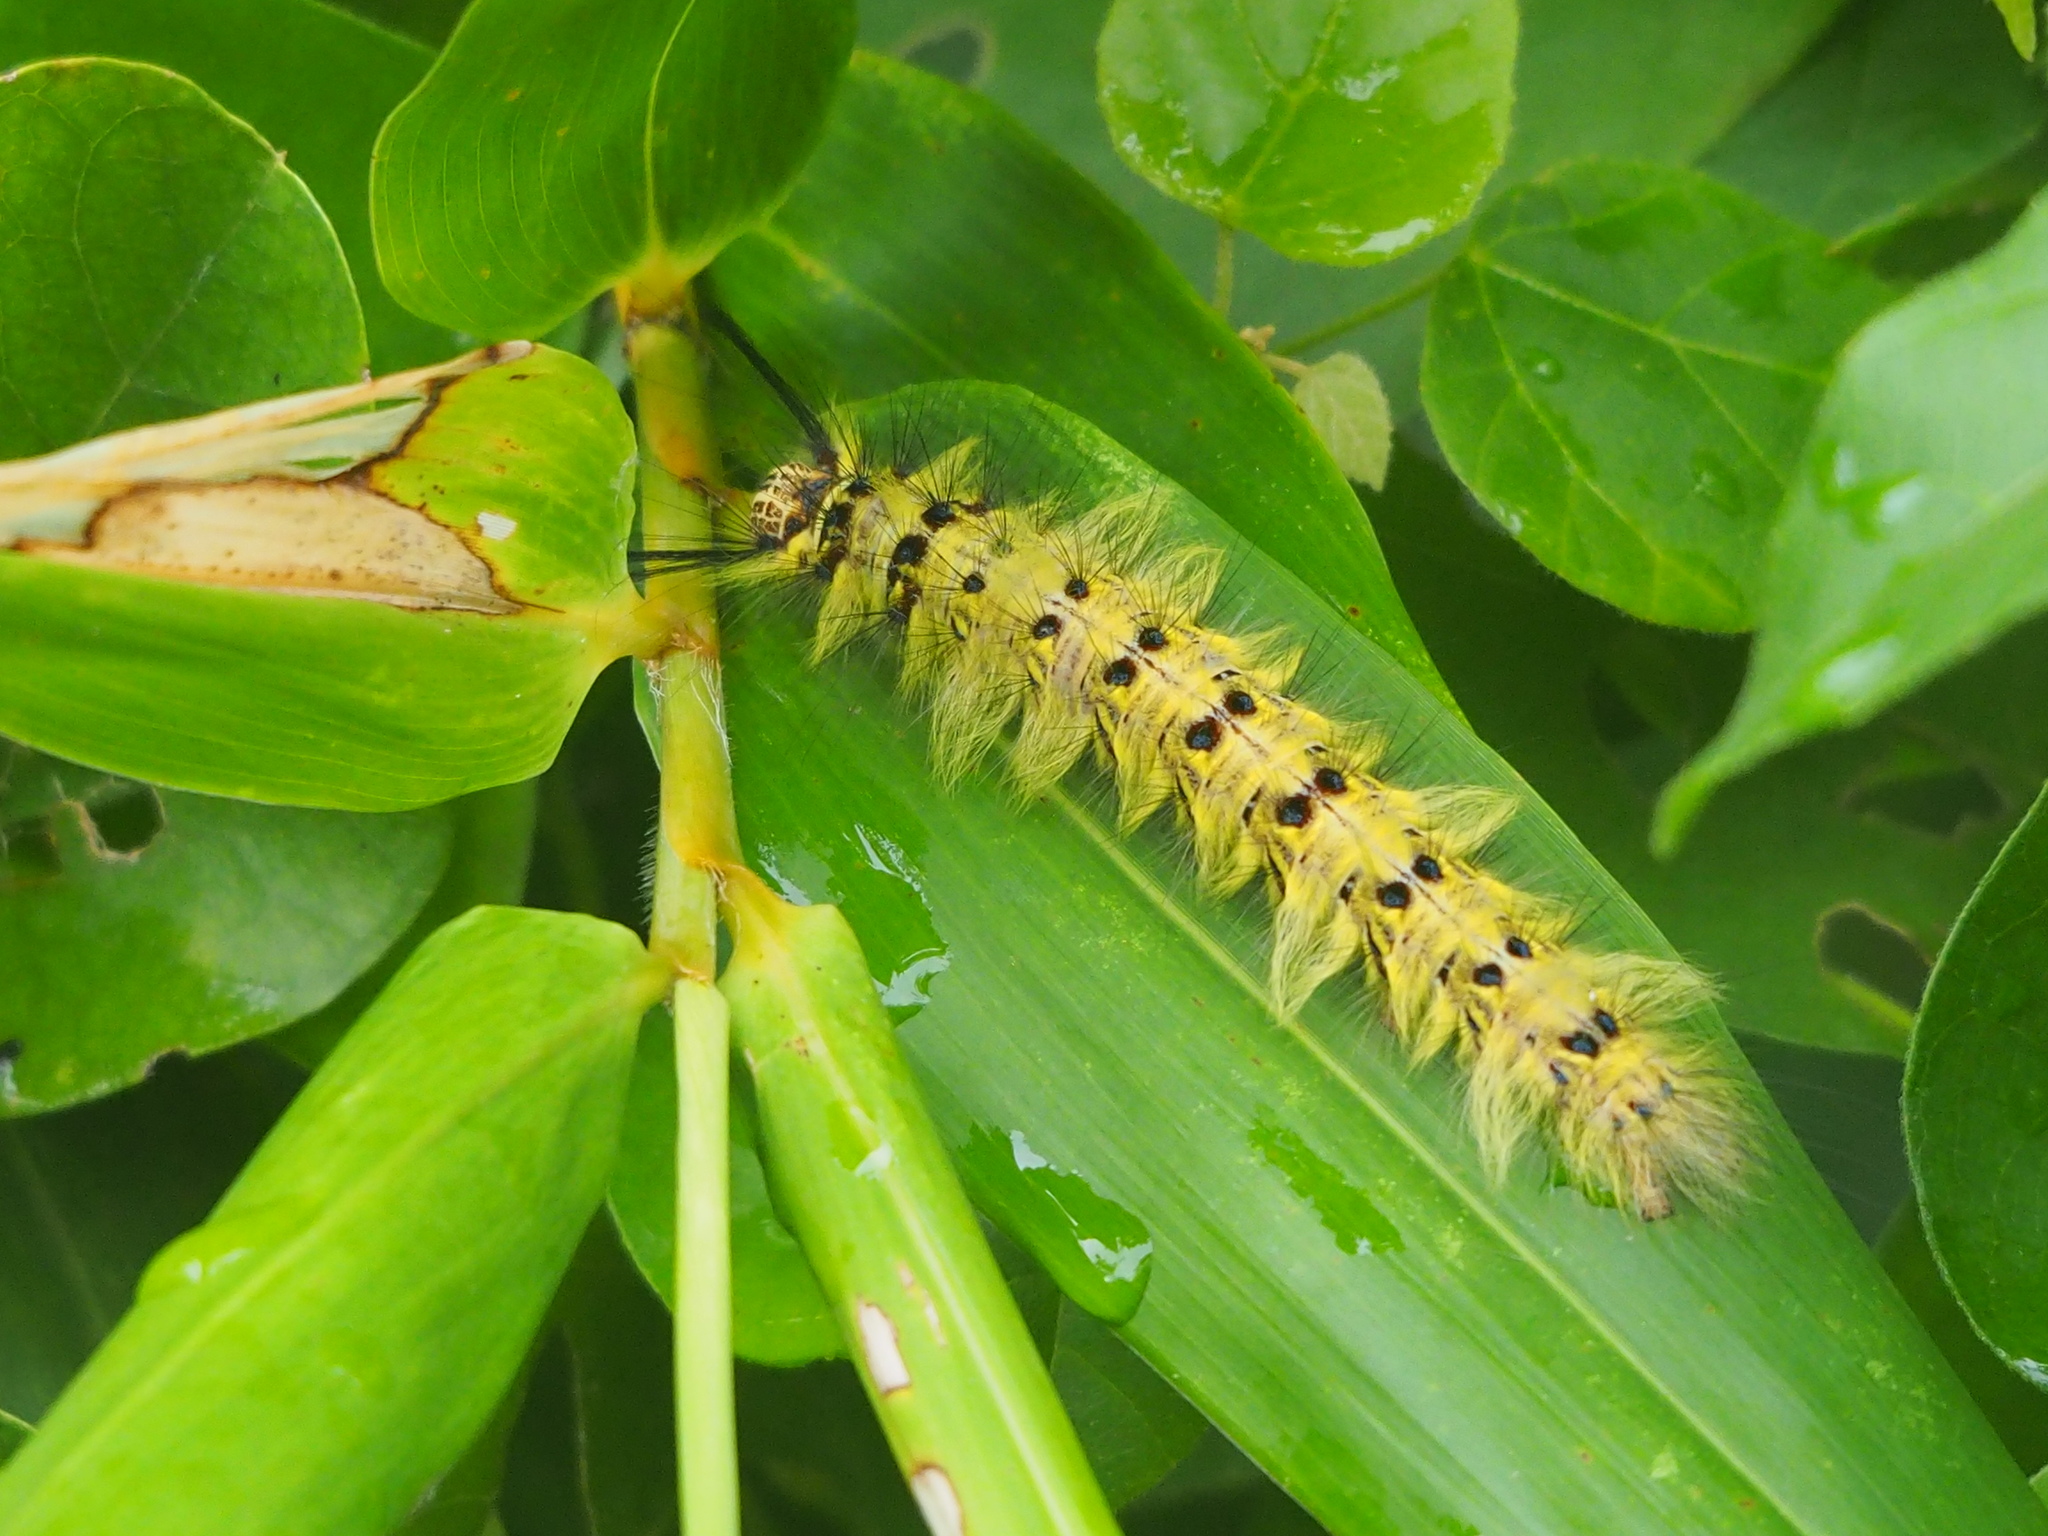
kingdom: Animalia
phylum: Arthropoda
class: Insecta
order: Lepidoptera
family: Lasiocampidae
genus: Trabala
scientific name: Trabala vishnou
